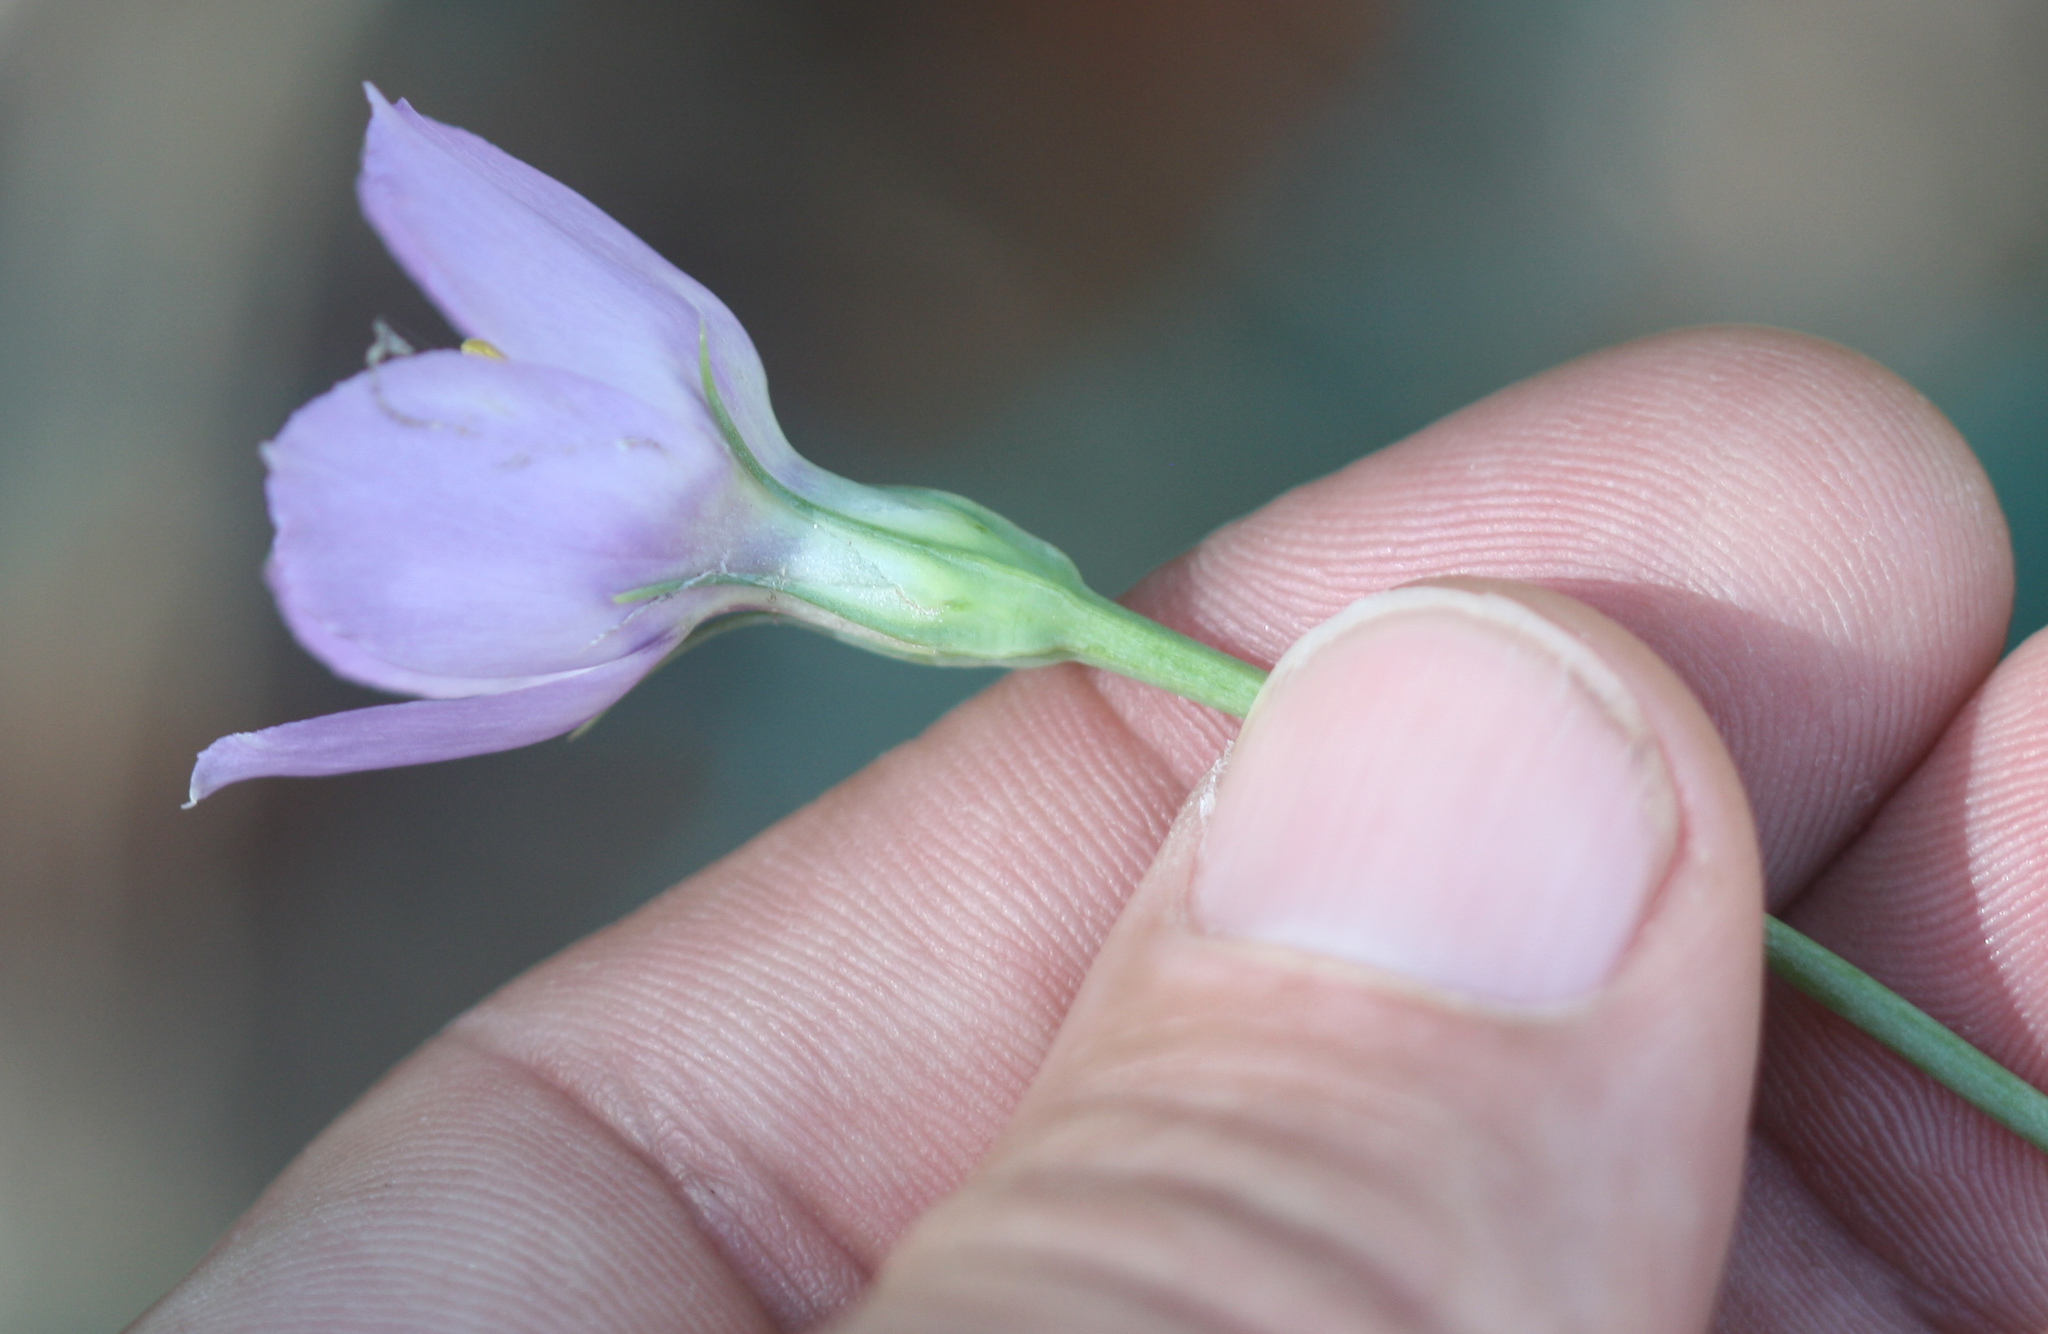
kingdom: Plantae
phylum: Tracheophyta
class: Magnoliopsida
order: Gentianales
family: Gentianaceae
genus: Eustoma
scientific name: Eustoma exaltatum
